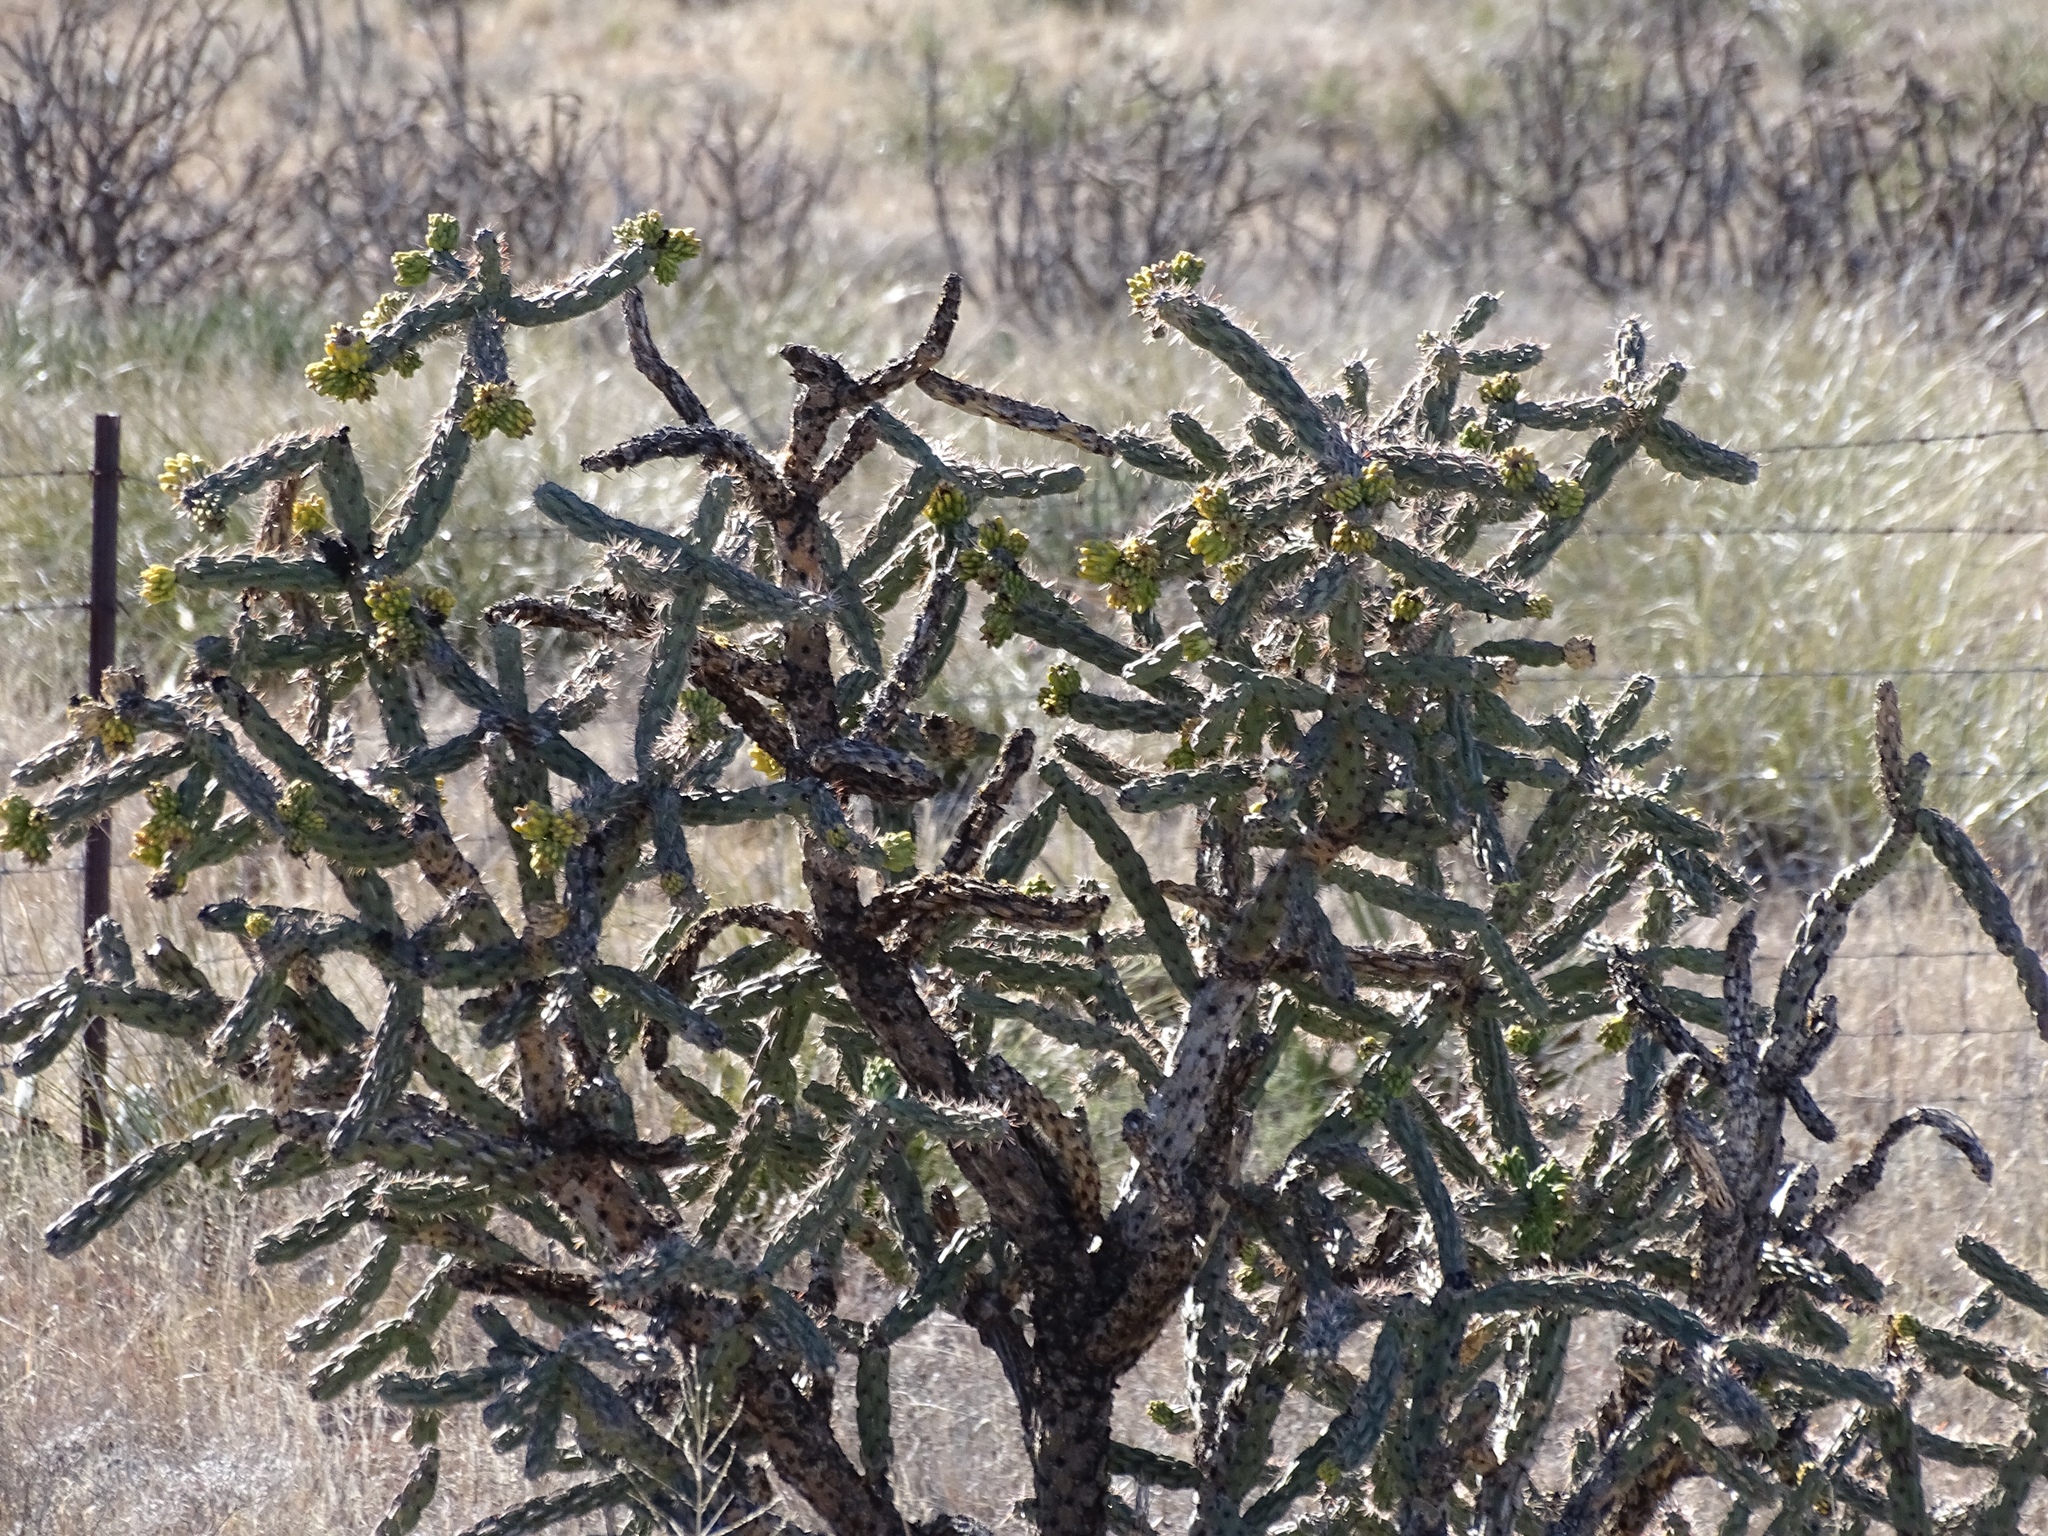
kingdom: Plantae
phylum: Tracheophyta
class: Magnoliopsida
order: Caryophyllales
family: Cactaceae
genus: Cylindropuntia
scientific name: Cylindropuntia imbricata
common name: Candelabrum cactus
